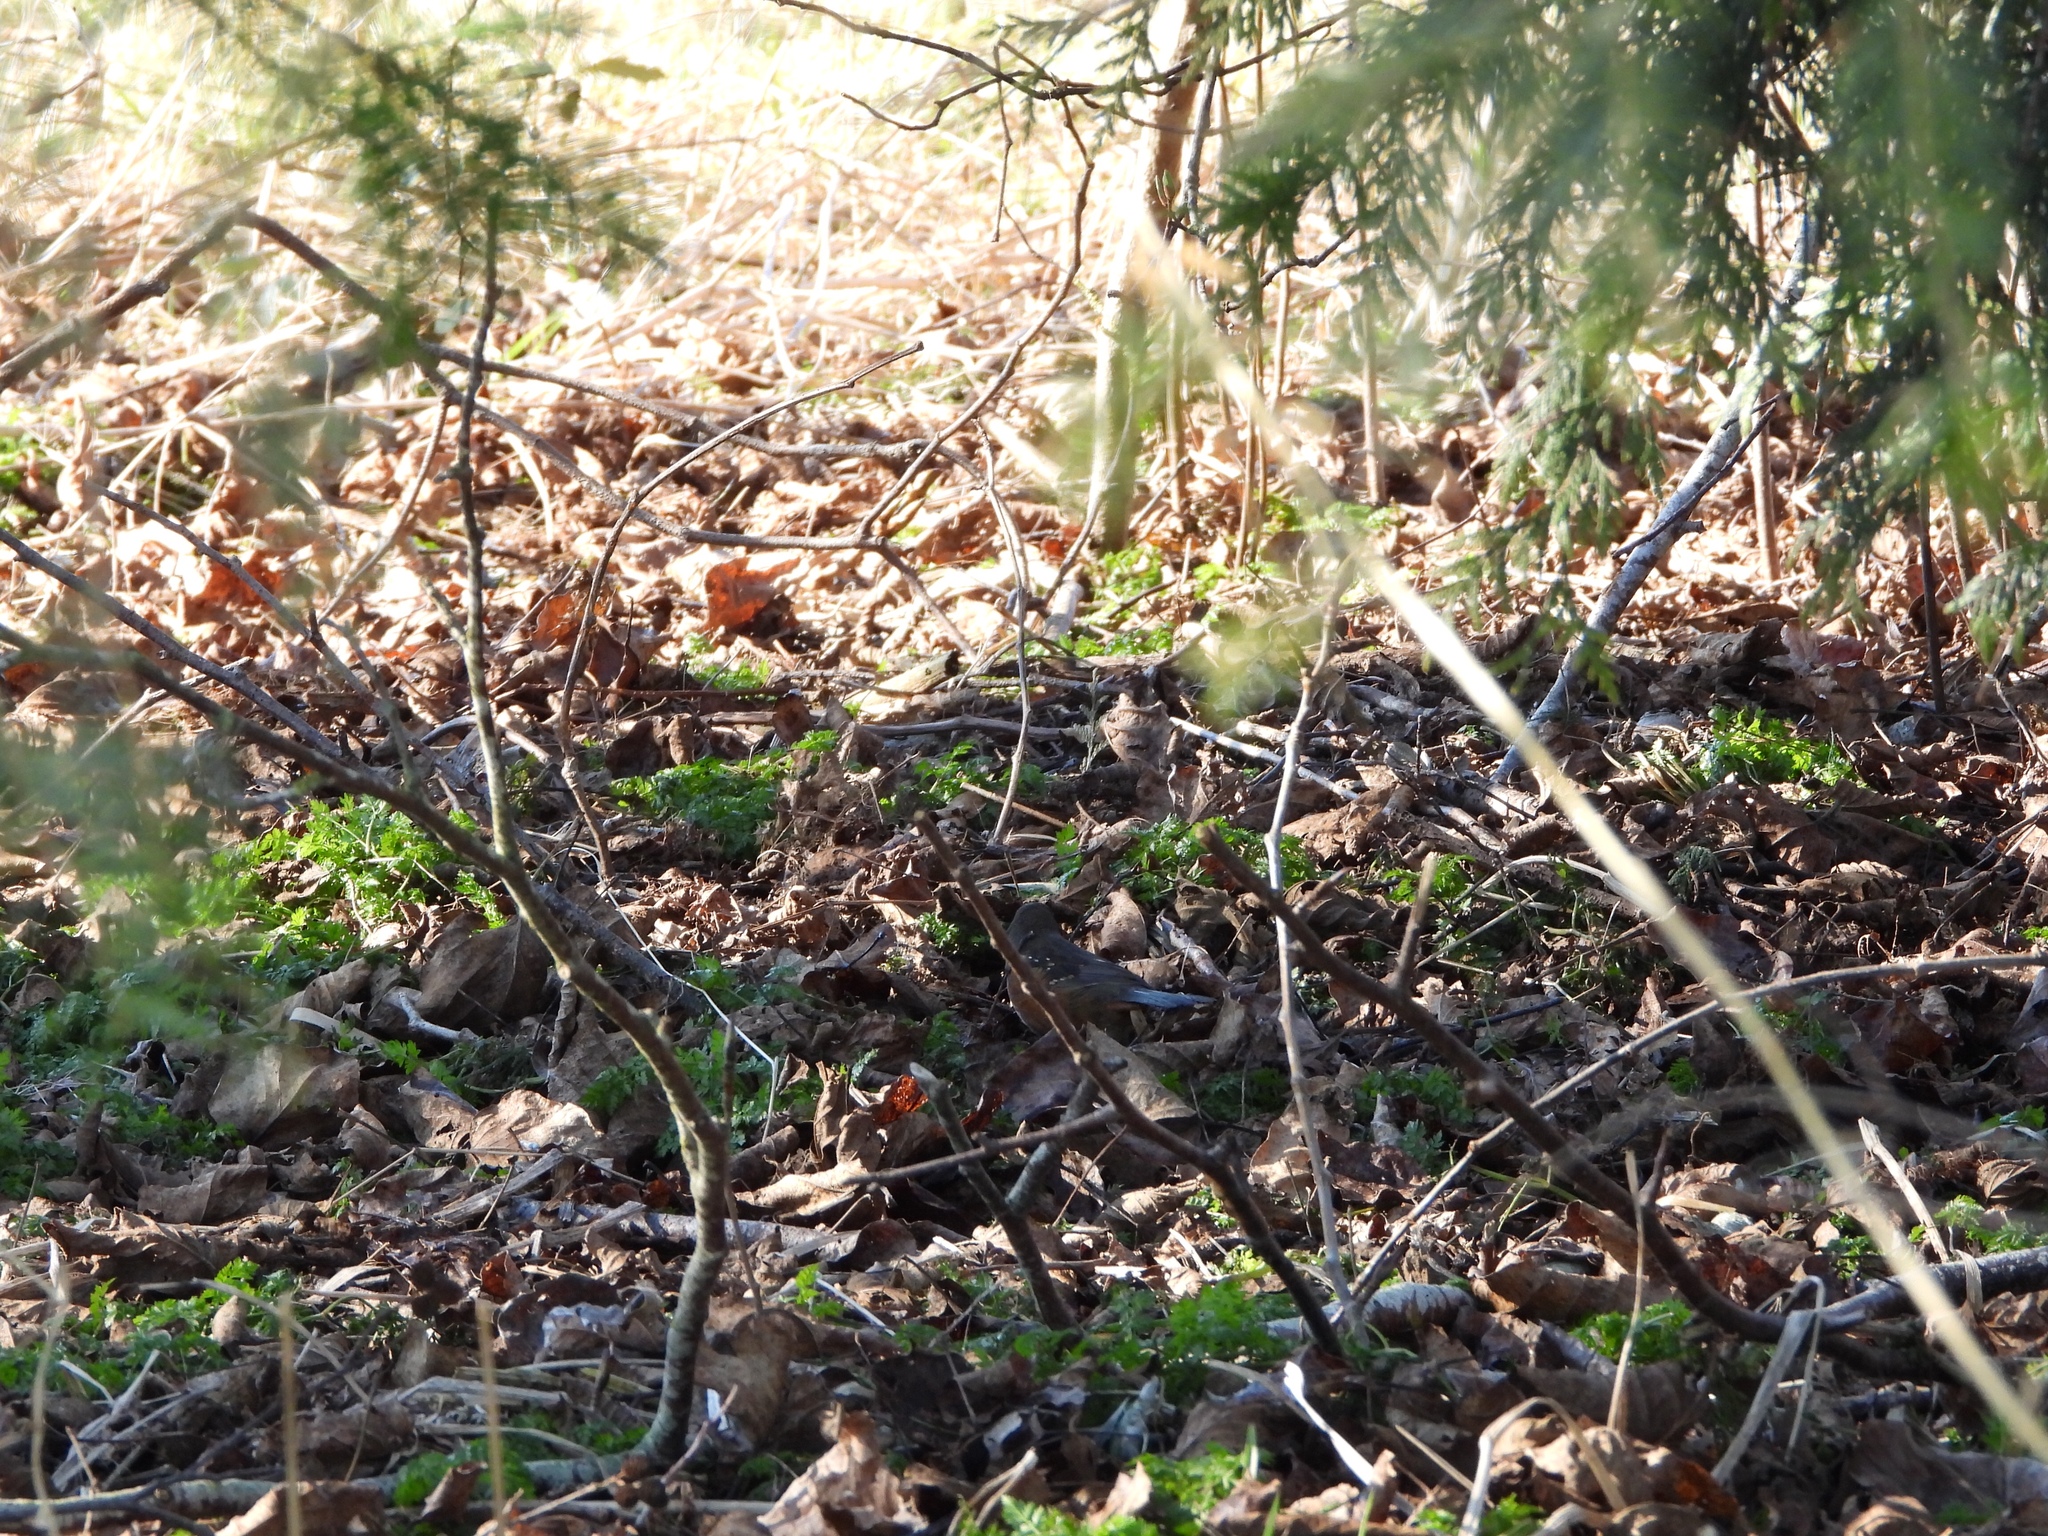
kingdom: Animalia
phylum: Chordata
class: Aves
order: Passeriformes
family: Passerellidae
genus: Pipilo
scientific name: Pipilo maculatus
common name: Spotted towhee
